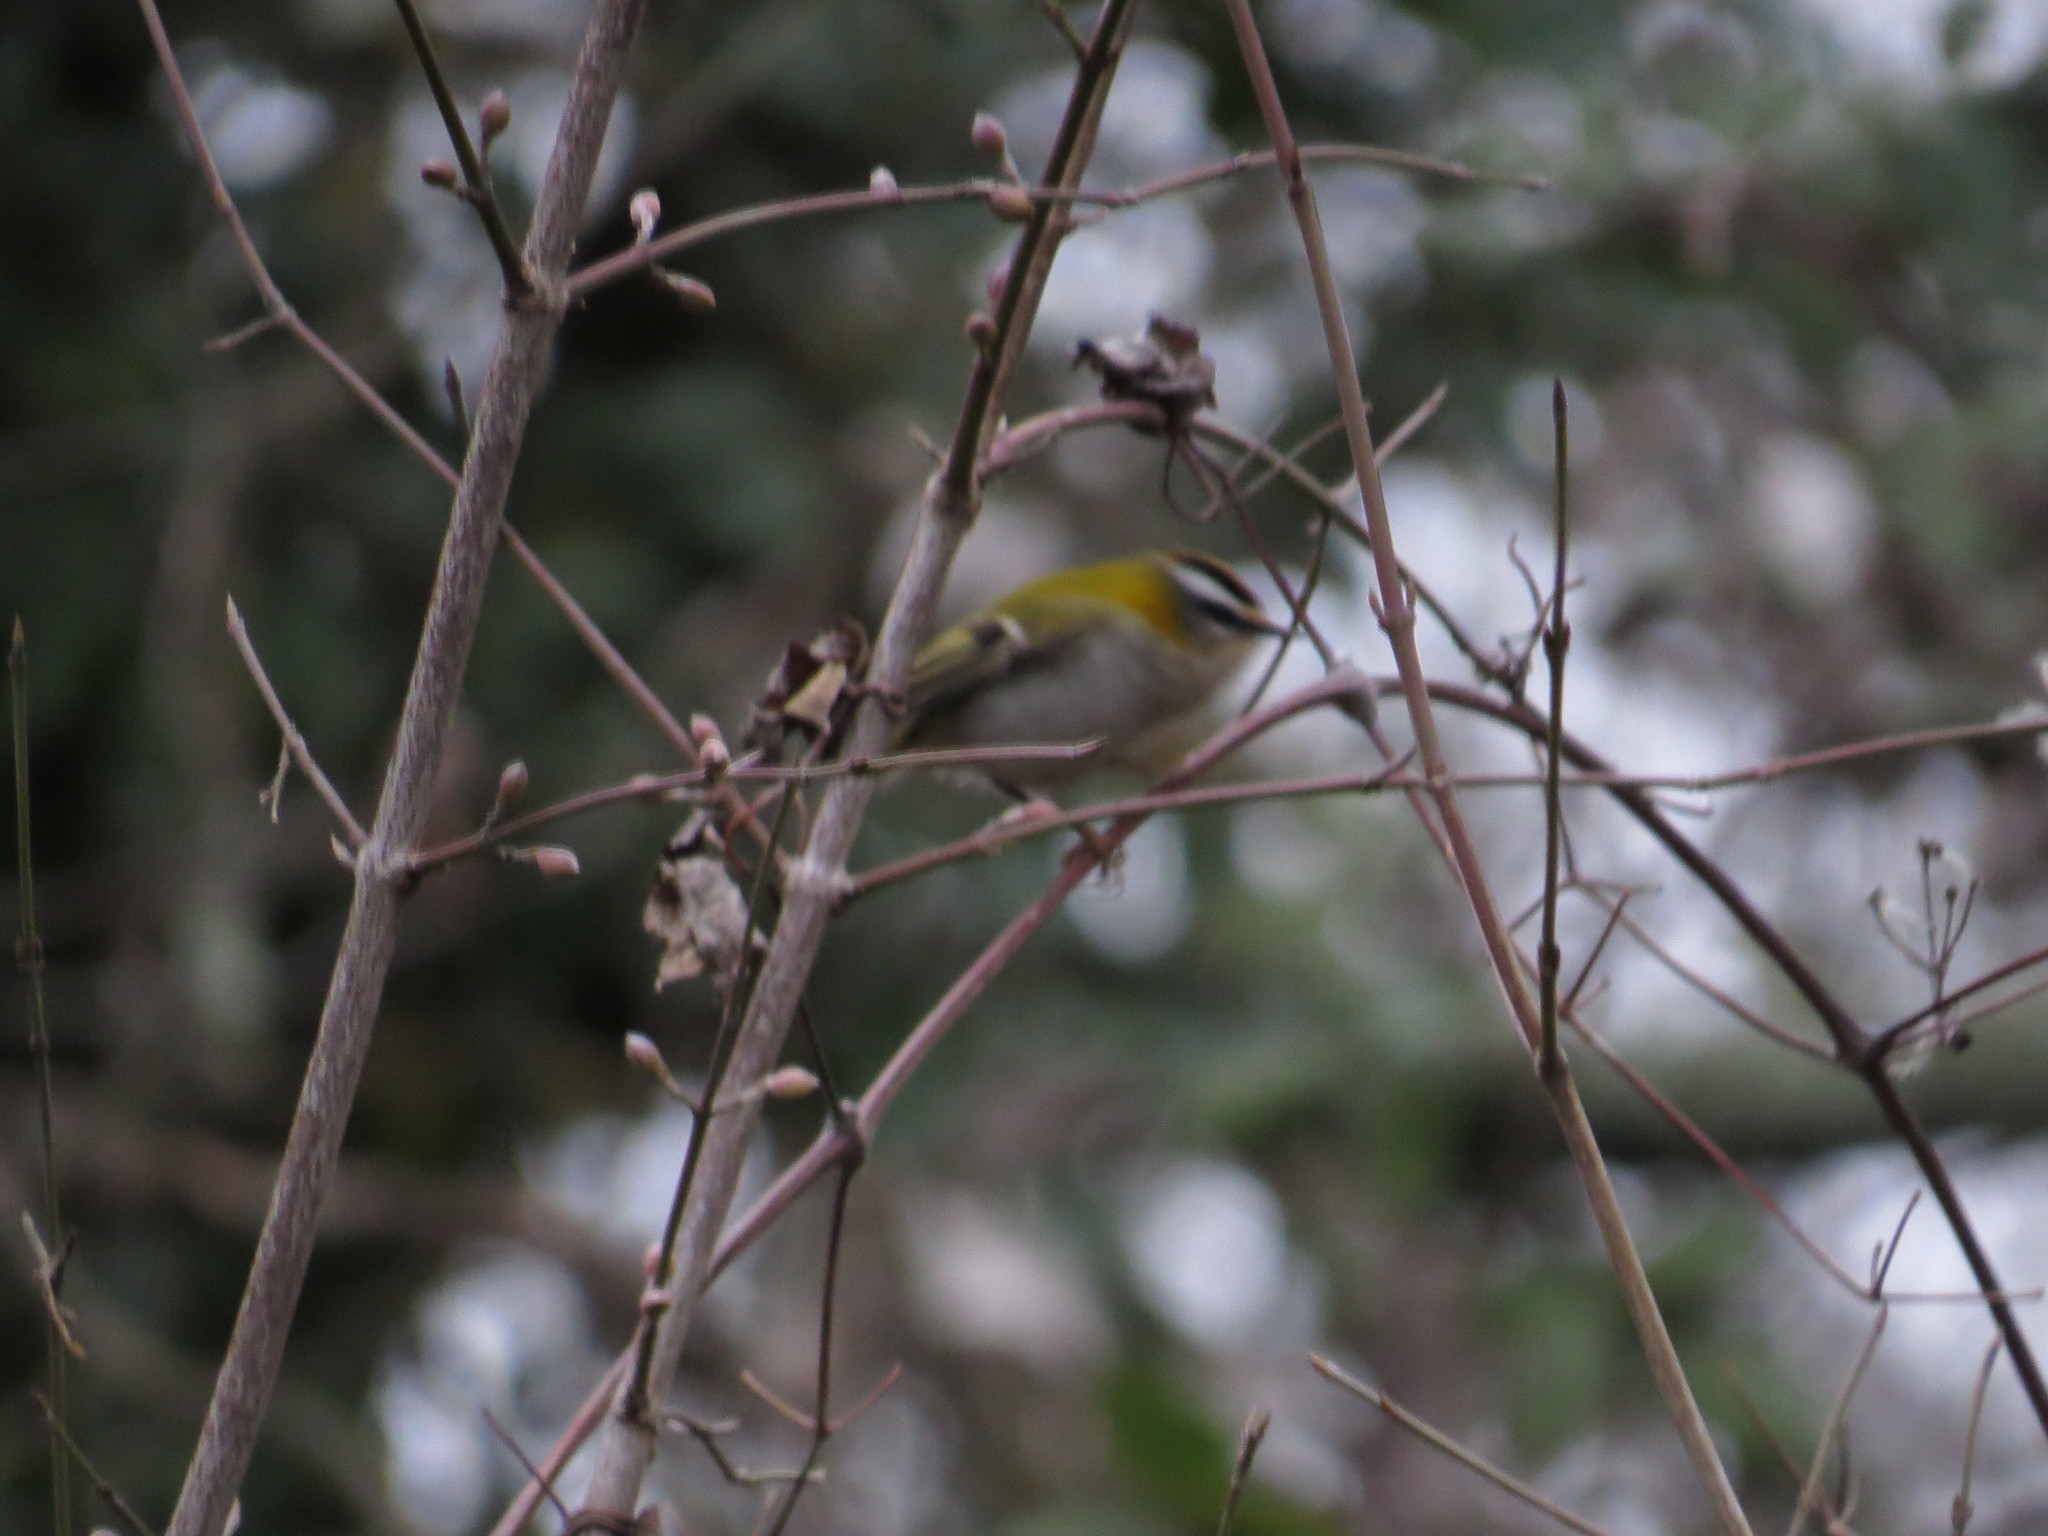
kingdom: Animalia
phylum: Chordata
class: Aves
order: Passeriformes
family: Regulidae
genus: Regulus
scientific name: Regulus ignicapilla
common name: Firecrest
